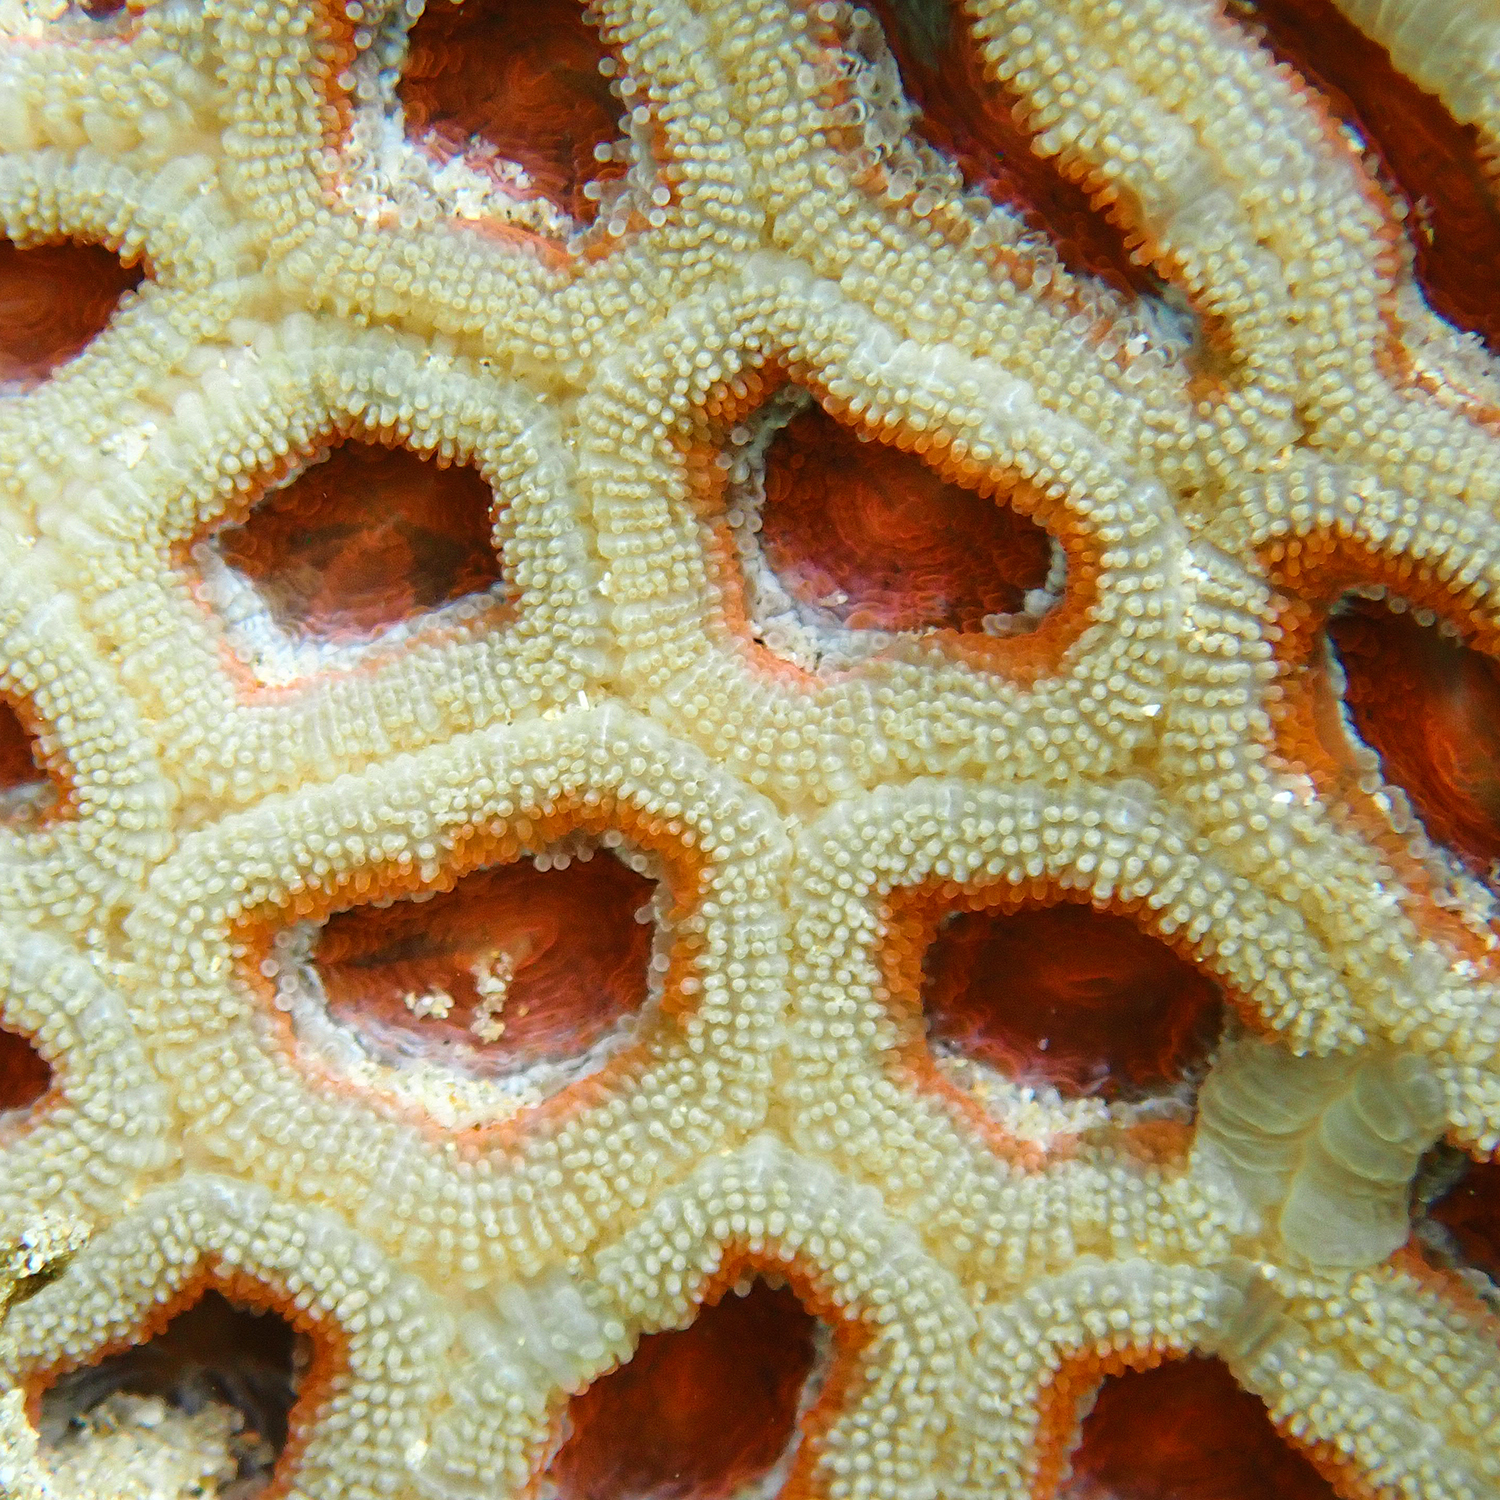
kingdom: Animalia
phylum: Cnidaria
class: Anthozoa
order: Scleractinia
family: Lobophylliidae
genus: Micromussa
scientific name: Micromussa lordhowensis
